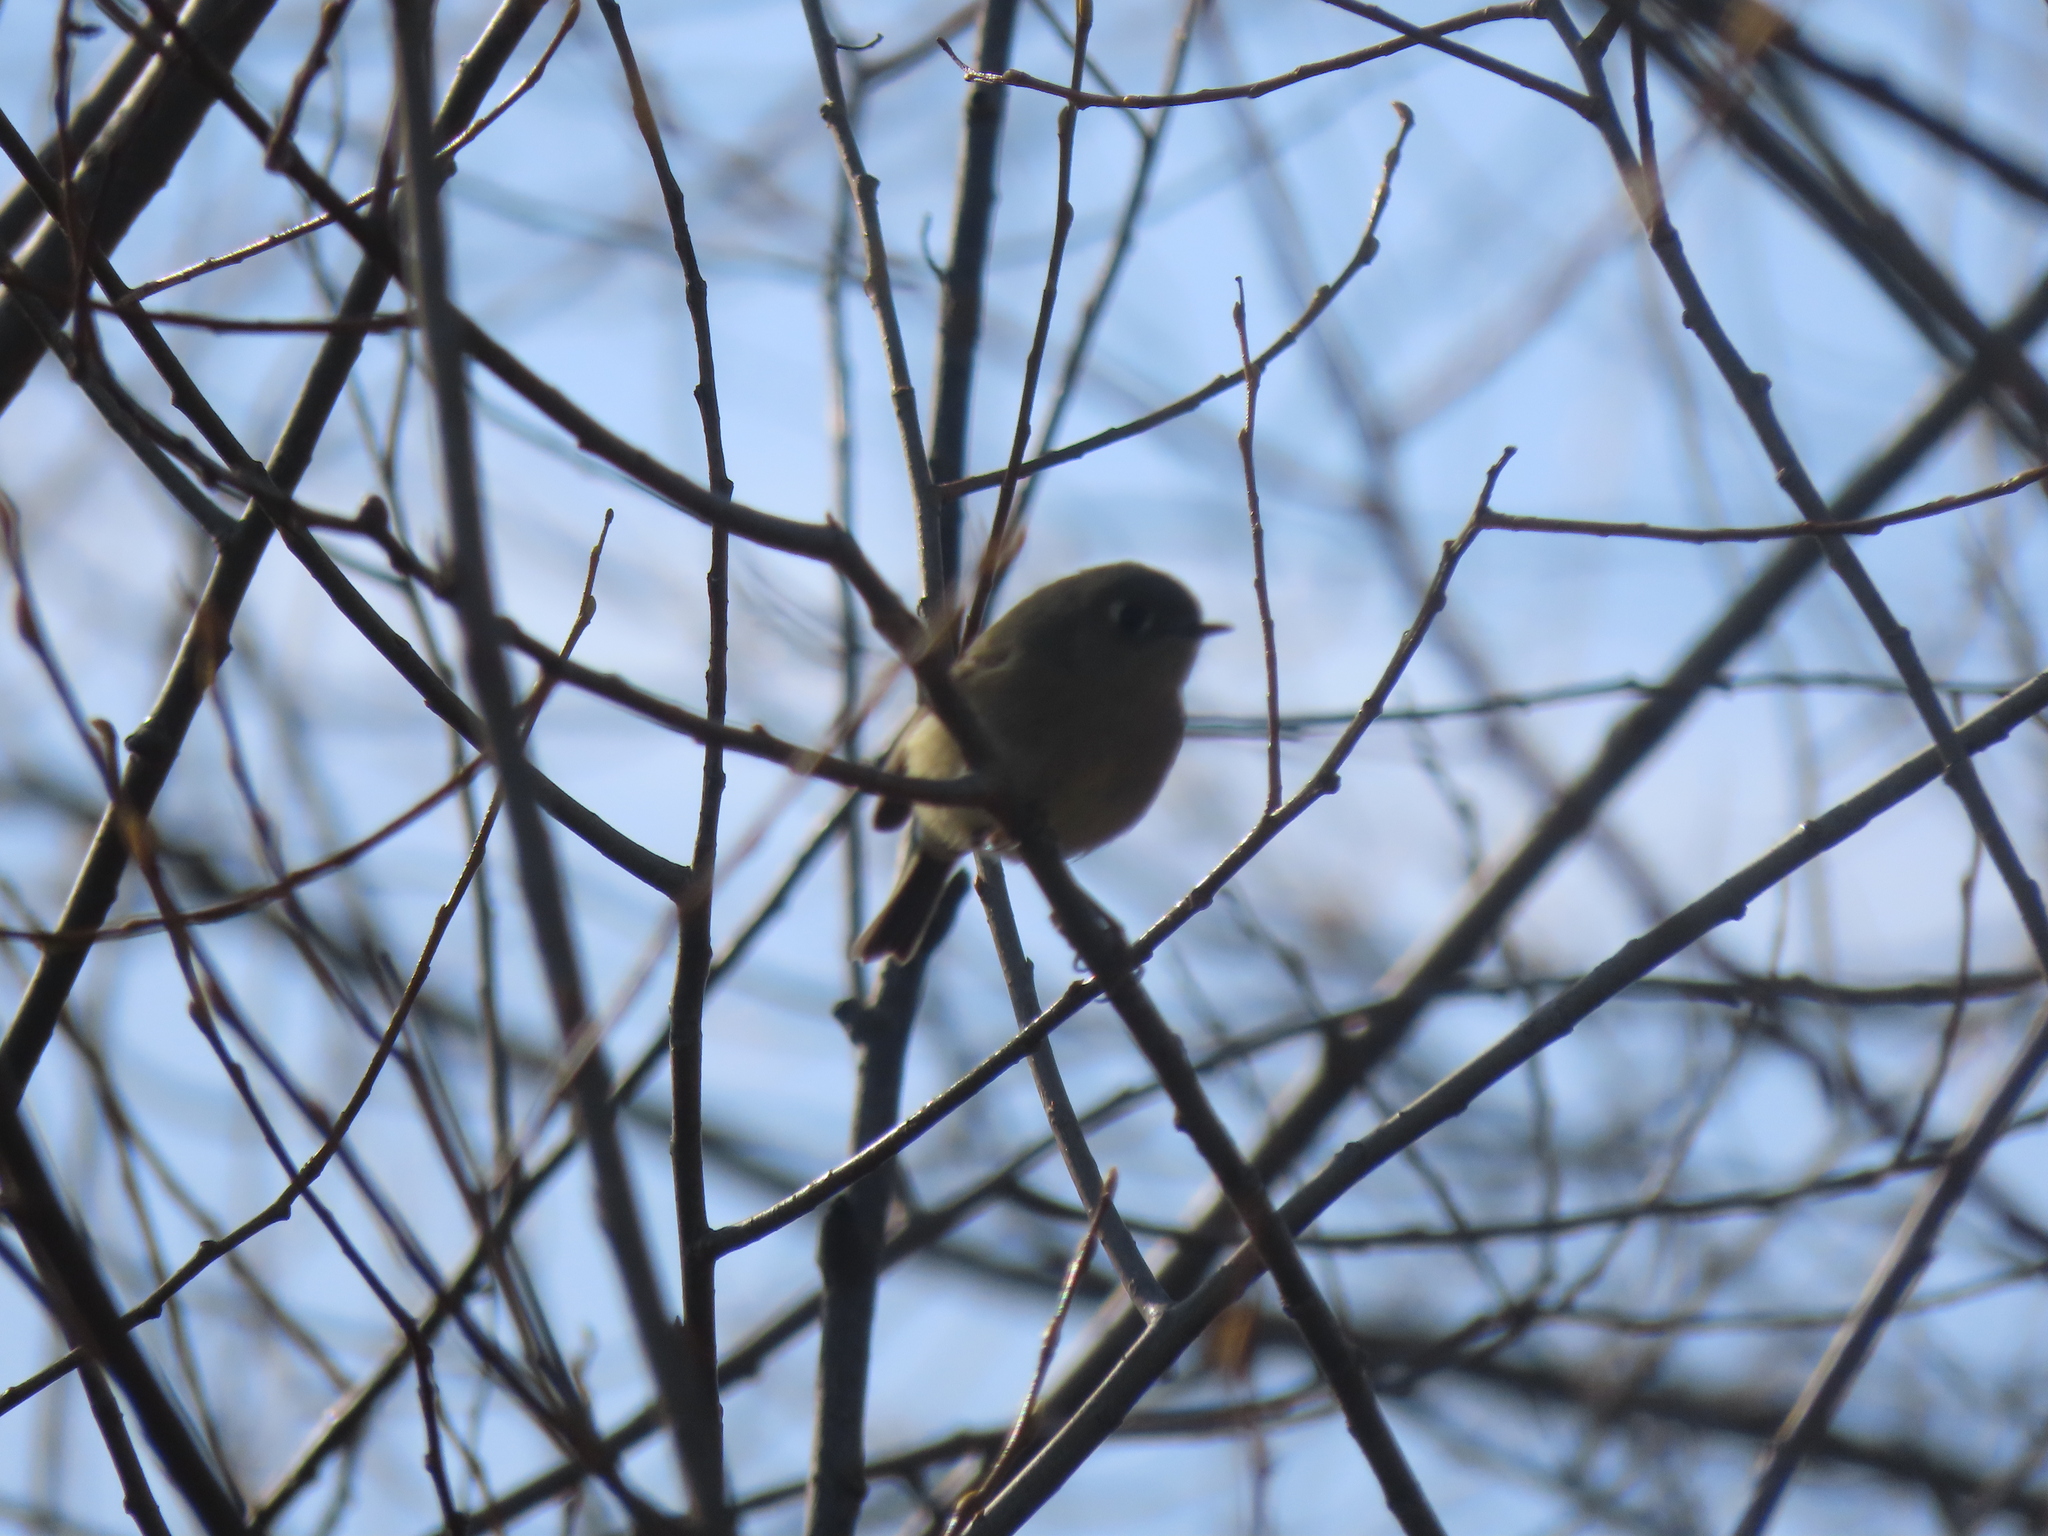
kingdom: Animalia
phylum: Chordata
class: Aves
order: Passeriformes
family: Regulidae
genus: Regulus
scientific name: Regulus calendula
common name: Ruby-crowned kinglet
